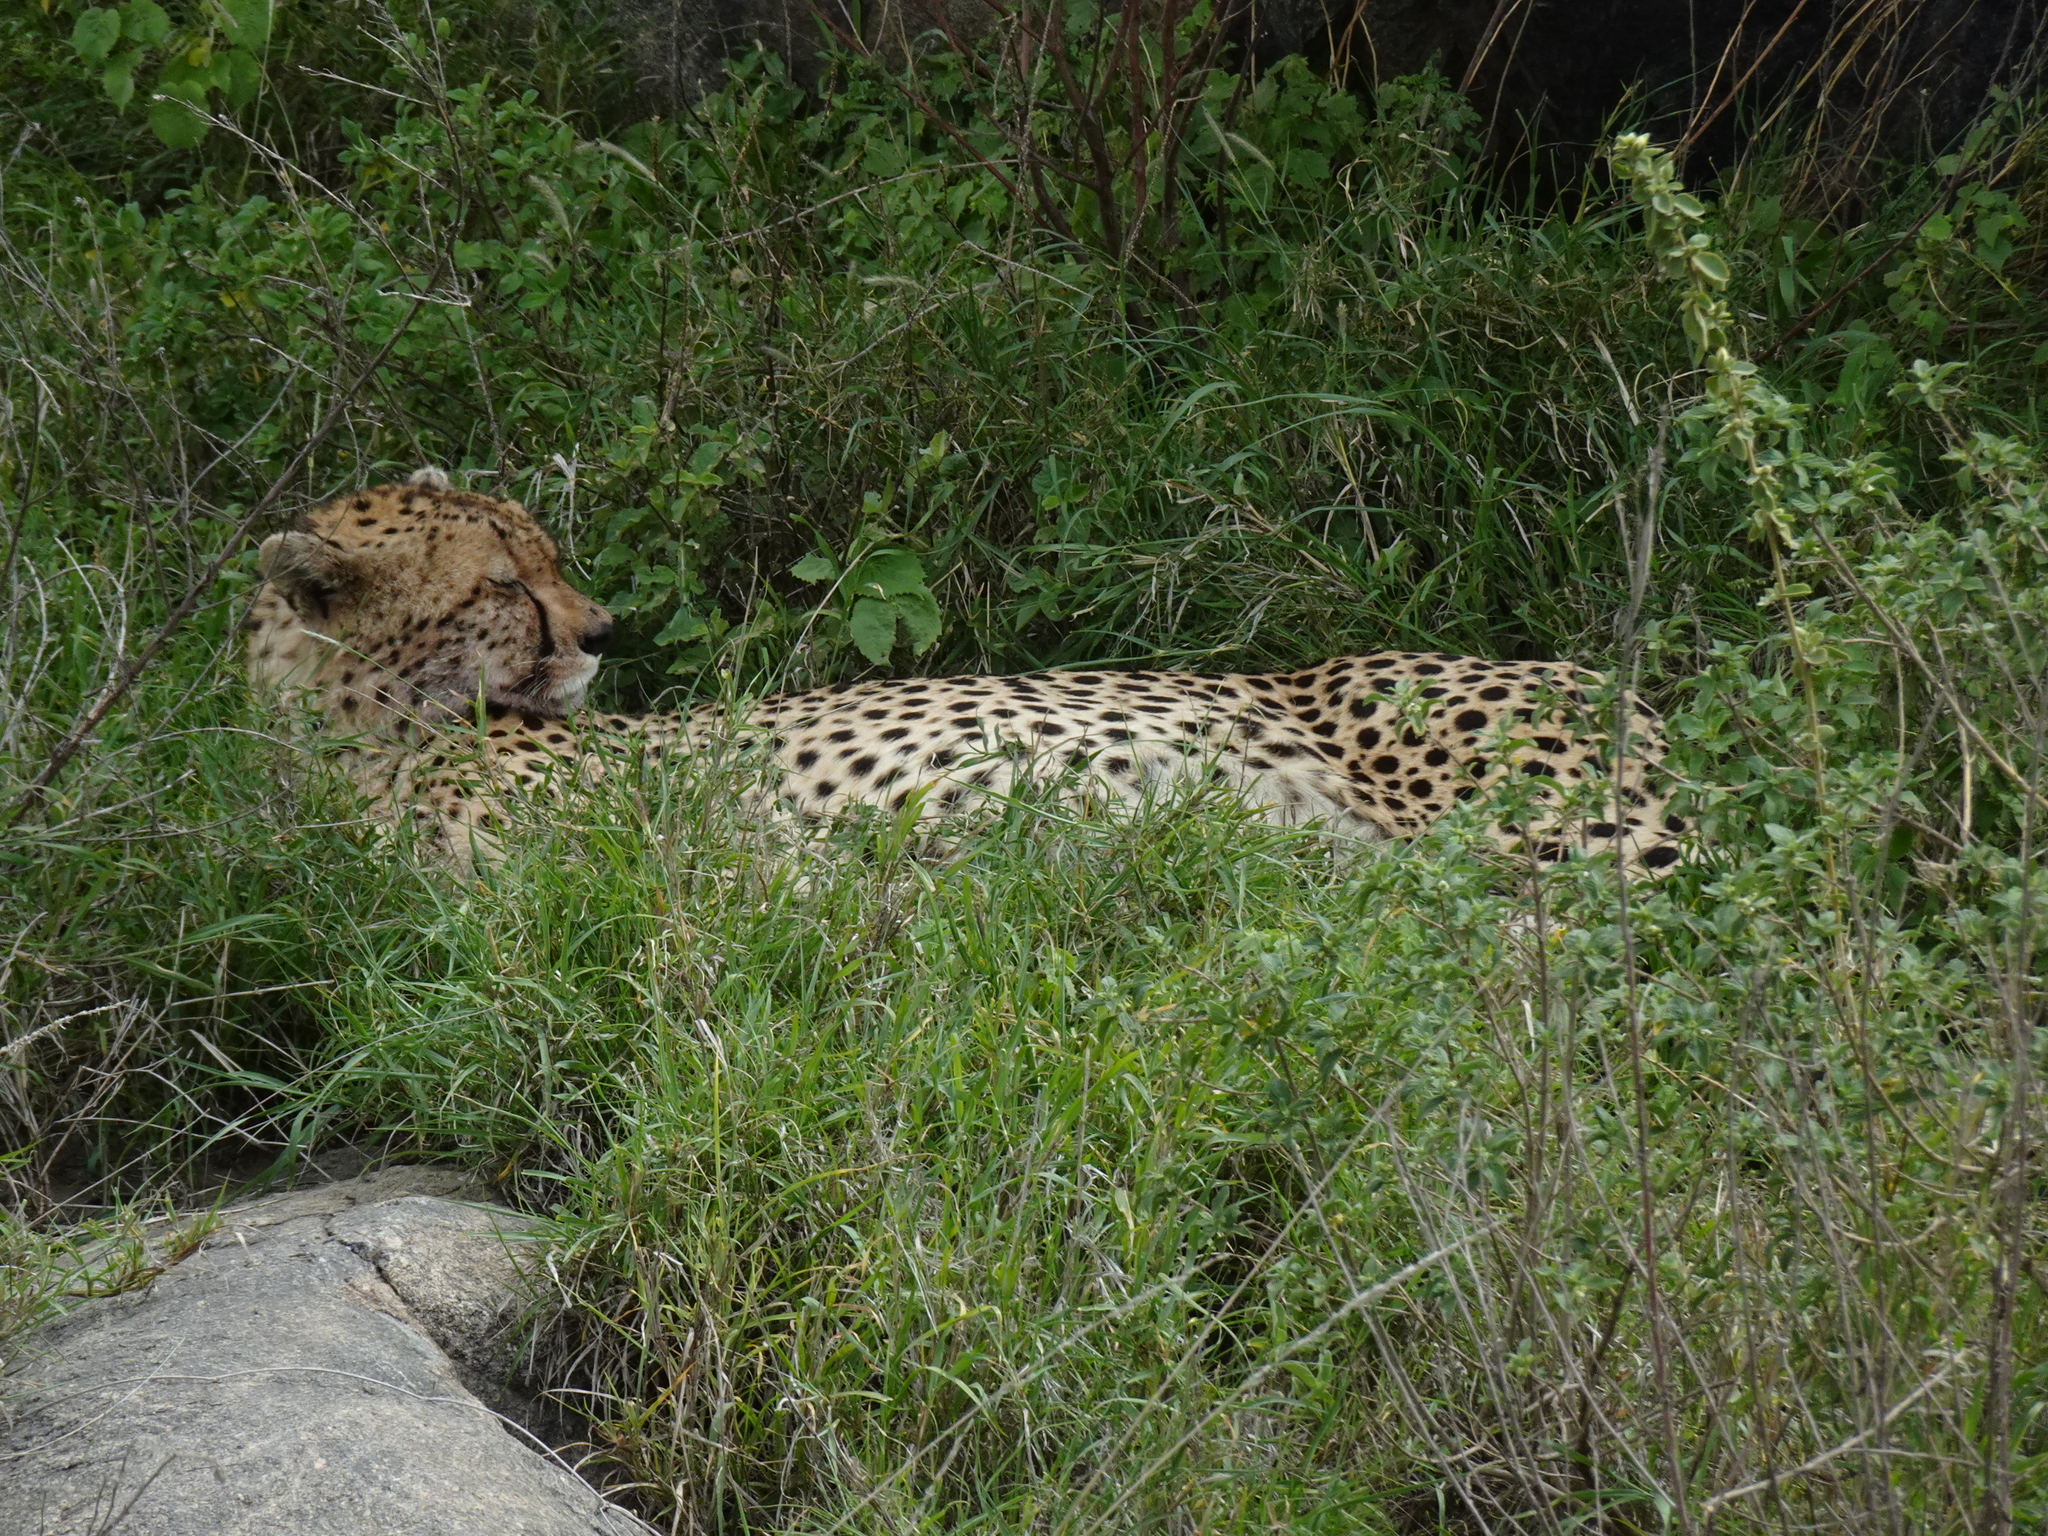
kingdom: Animalia
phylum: Chordata
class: Mammalia
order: Carnivora
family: Felidae
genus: Acinonyx
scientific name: Acinonyx jubatus
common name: Cheetah
